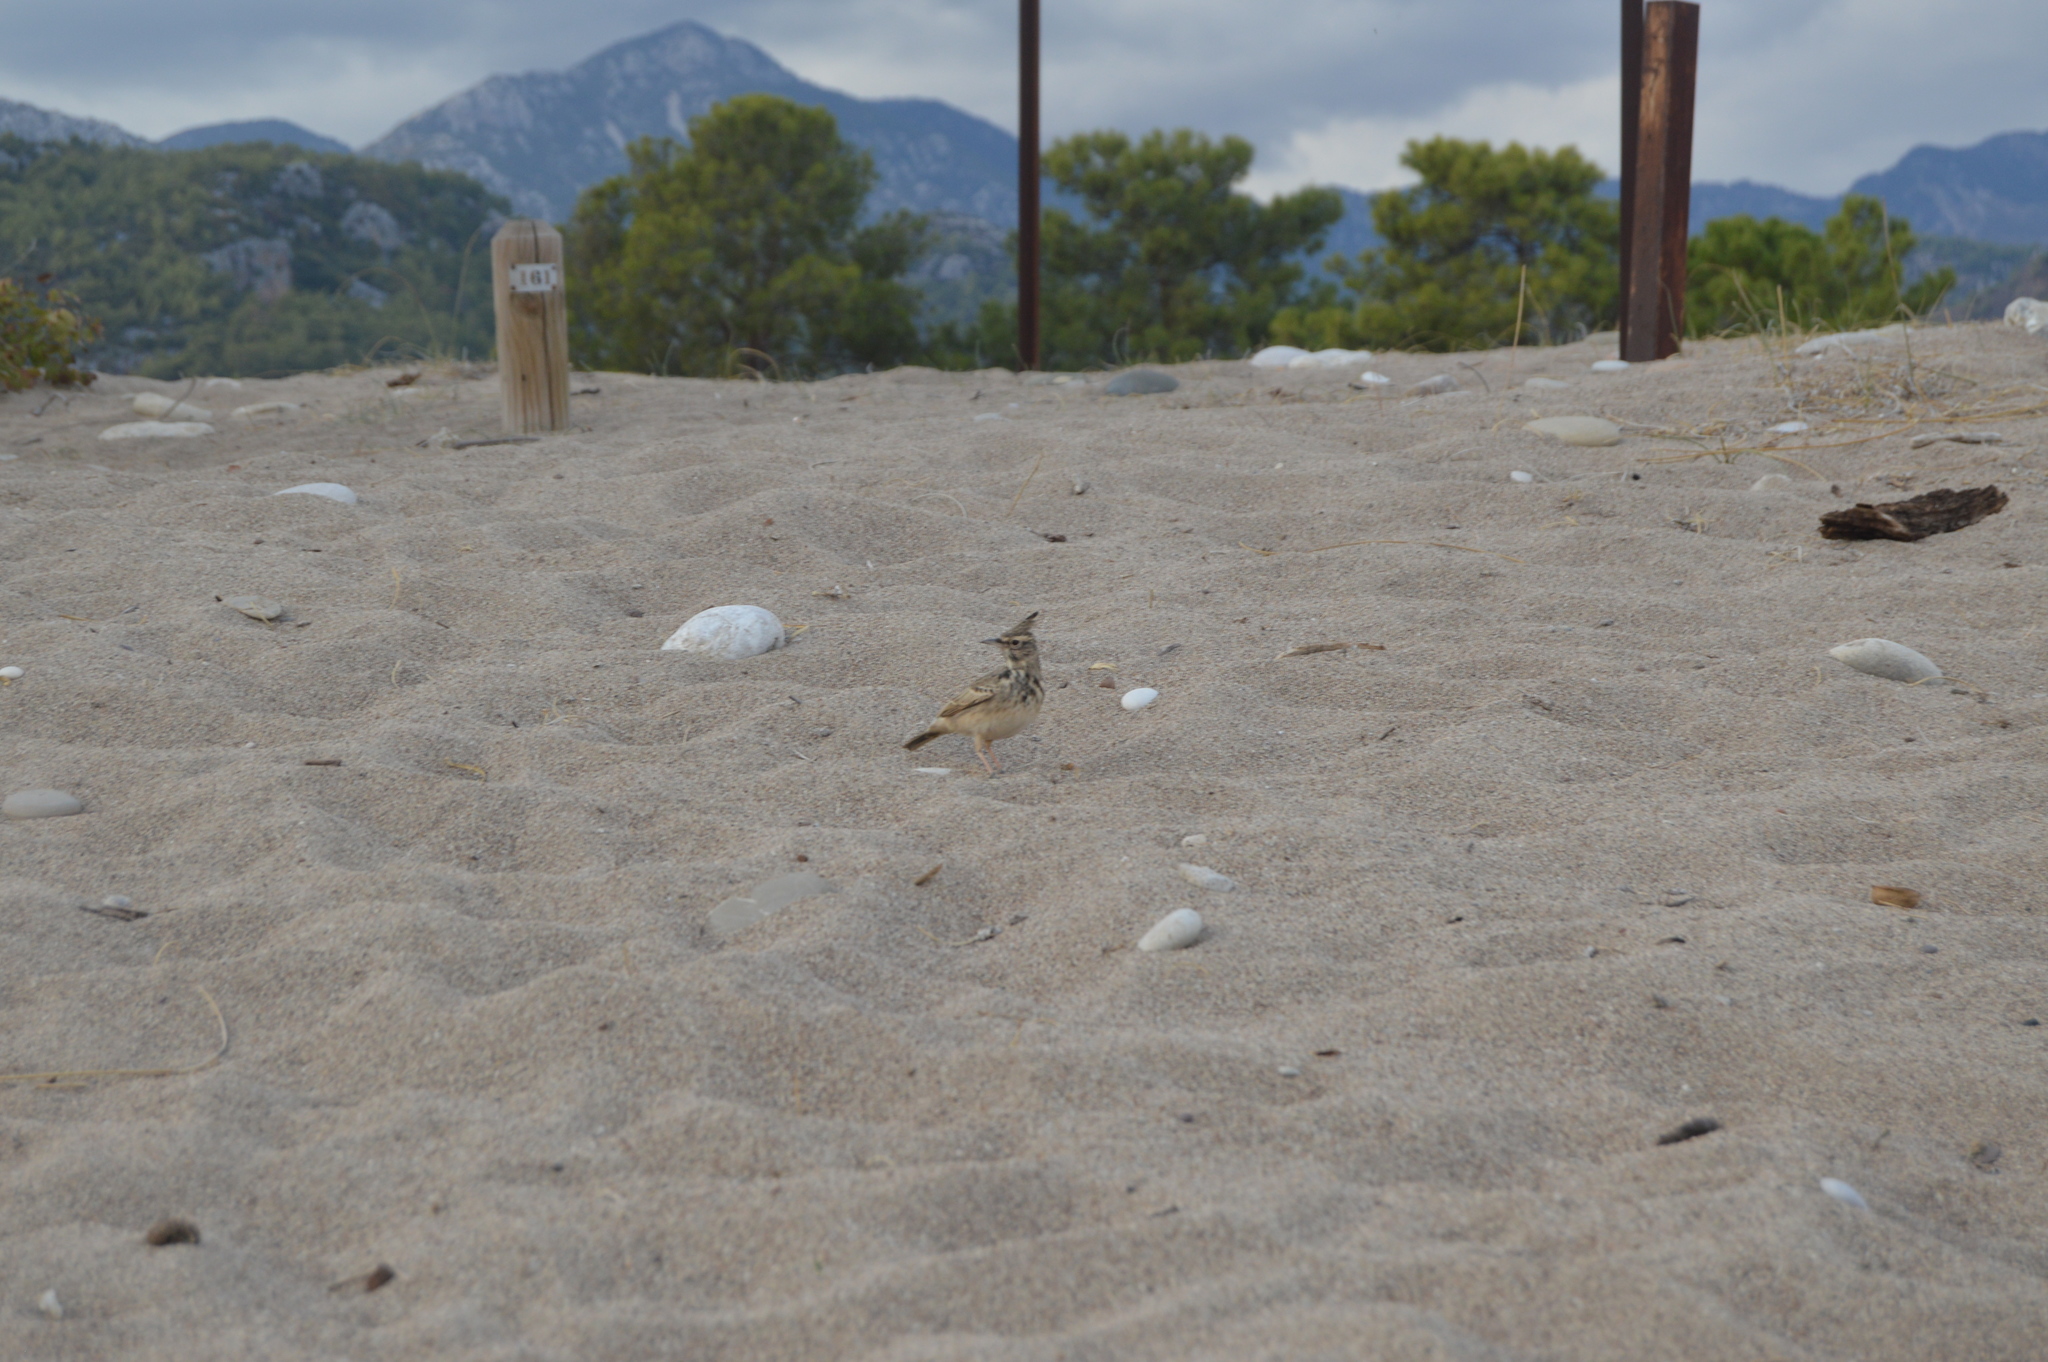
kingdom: Animalia
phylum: Chordata
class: Aves
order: Passeriformes
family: Alaudidae
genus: Galerida
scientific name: Galerida cristata
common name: Crested lark
